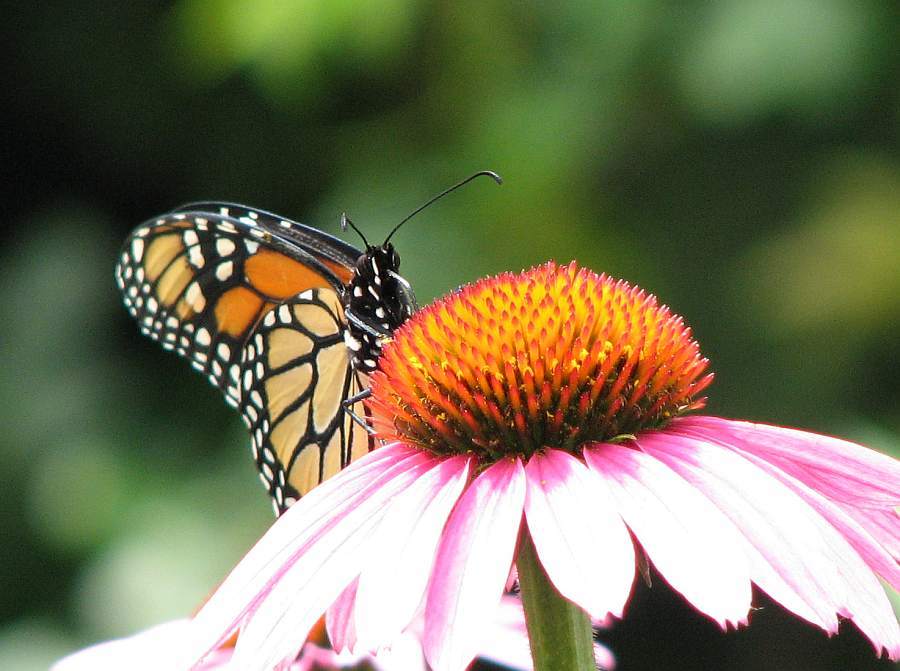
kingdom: Animalia
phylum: Arthropoda
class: Insecta
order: Lepidoptera
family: Nymphalidae
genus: Danaus
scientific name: Danaus plexippus
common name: Monarch
